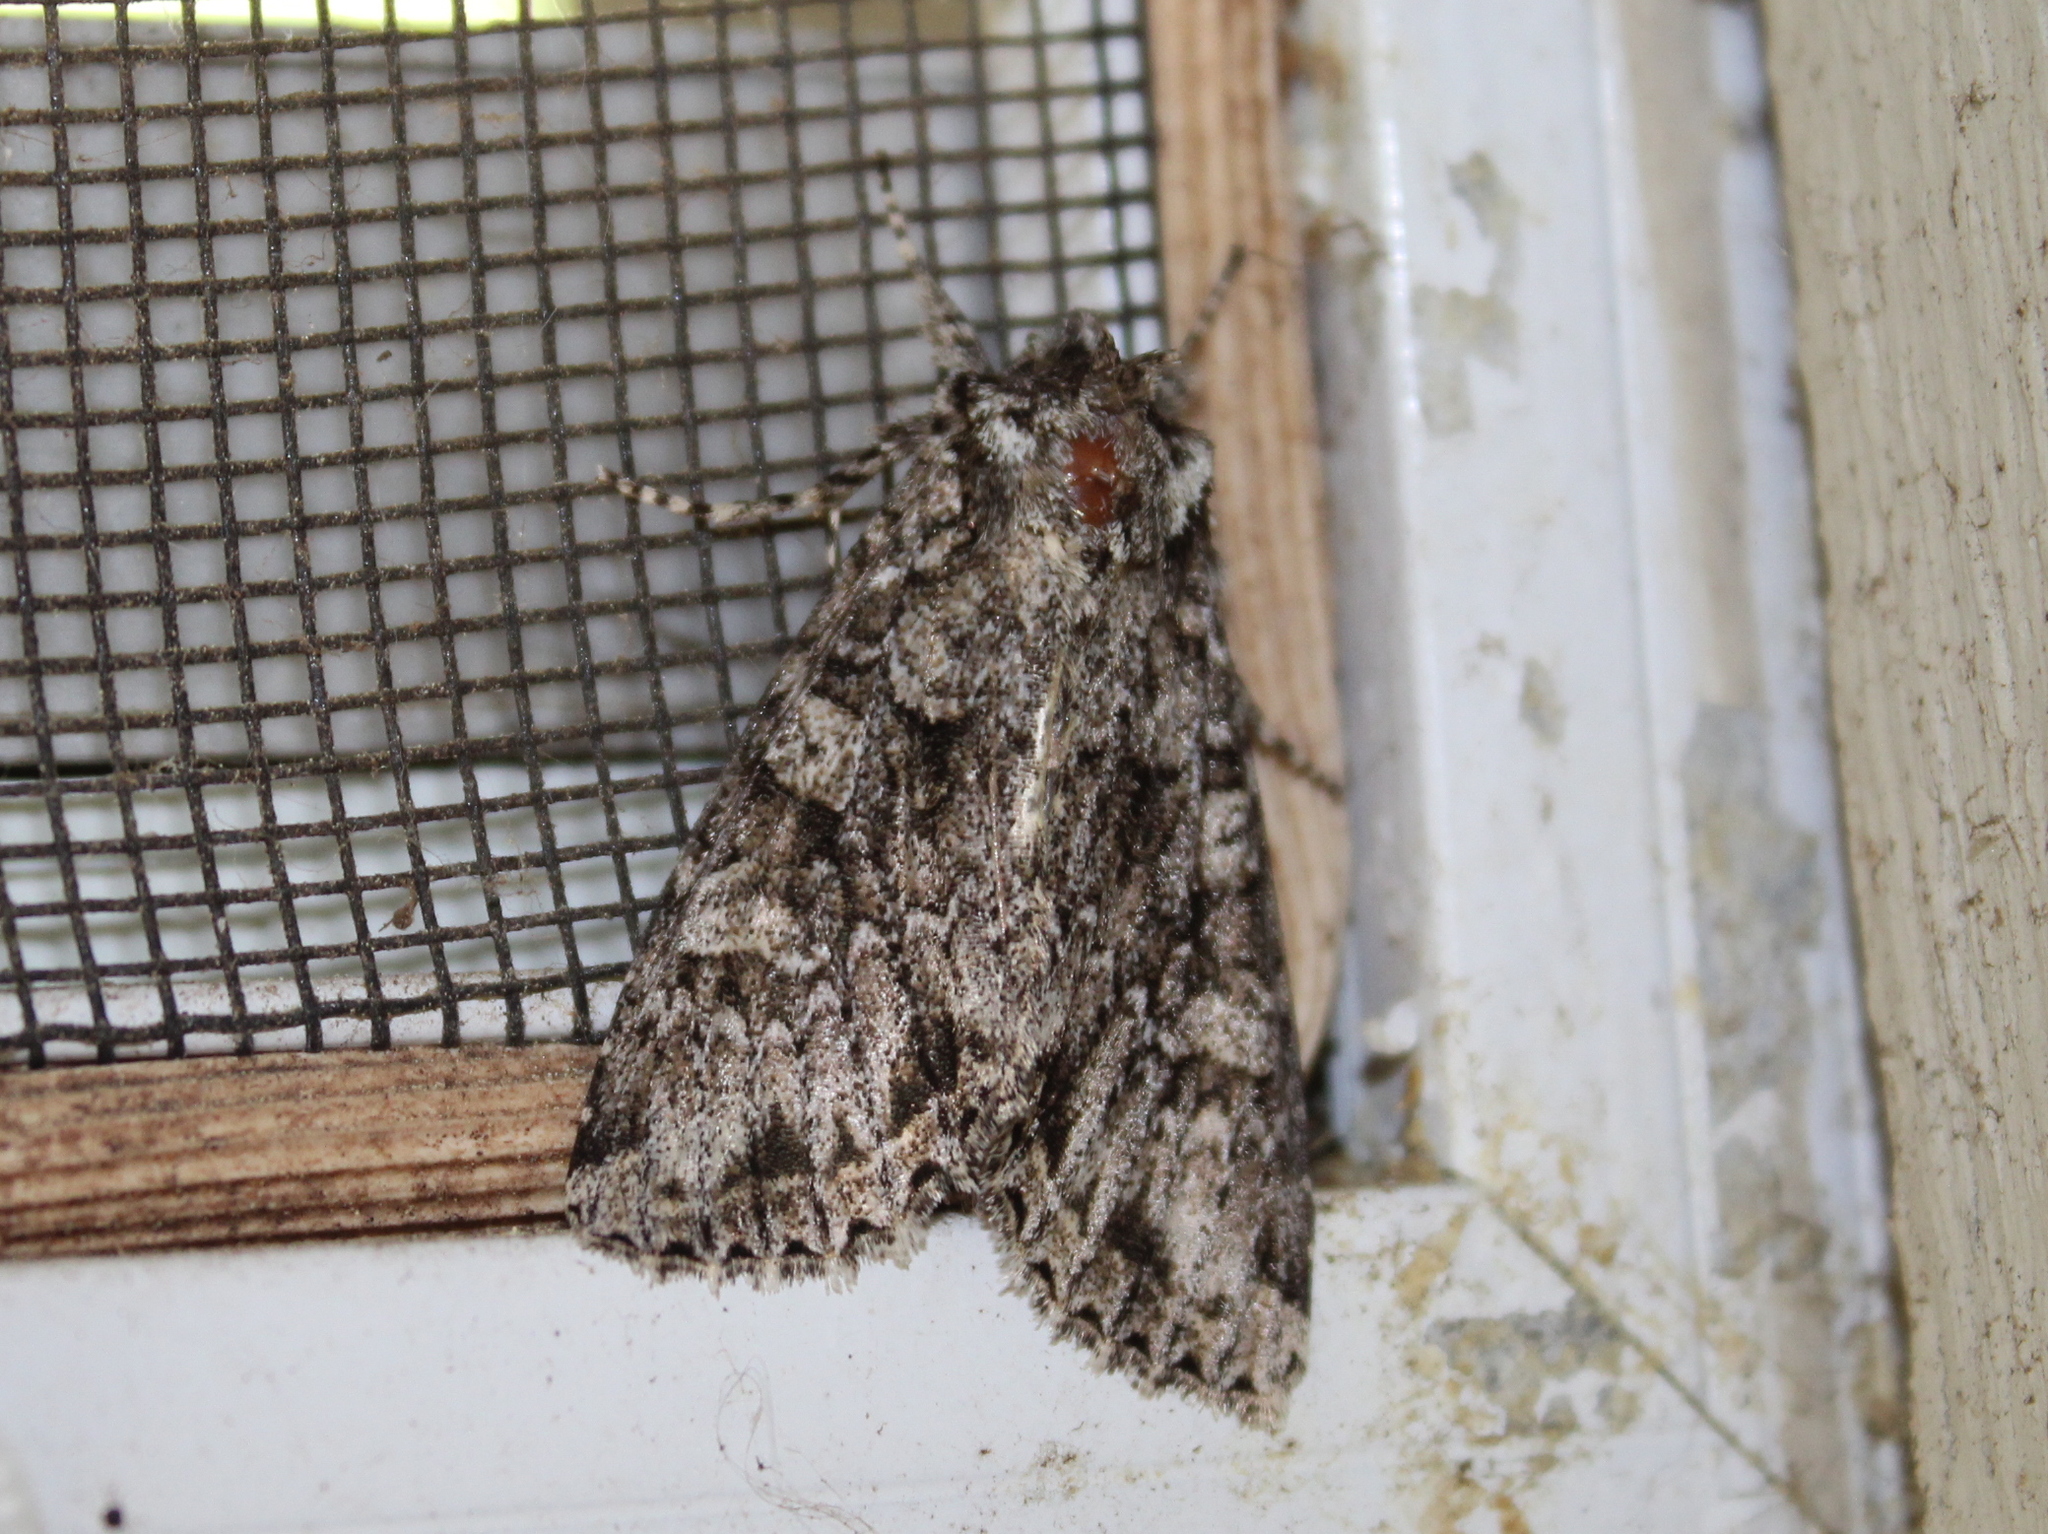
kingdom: Animalia
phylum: Arthropoda
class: Insecta
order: Lepidoptera
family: Noctuidae
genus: Polia
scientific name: Polia imbrifera
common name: Cloudy arches moth
